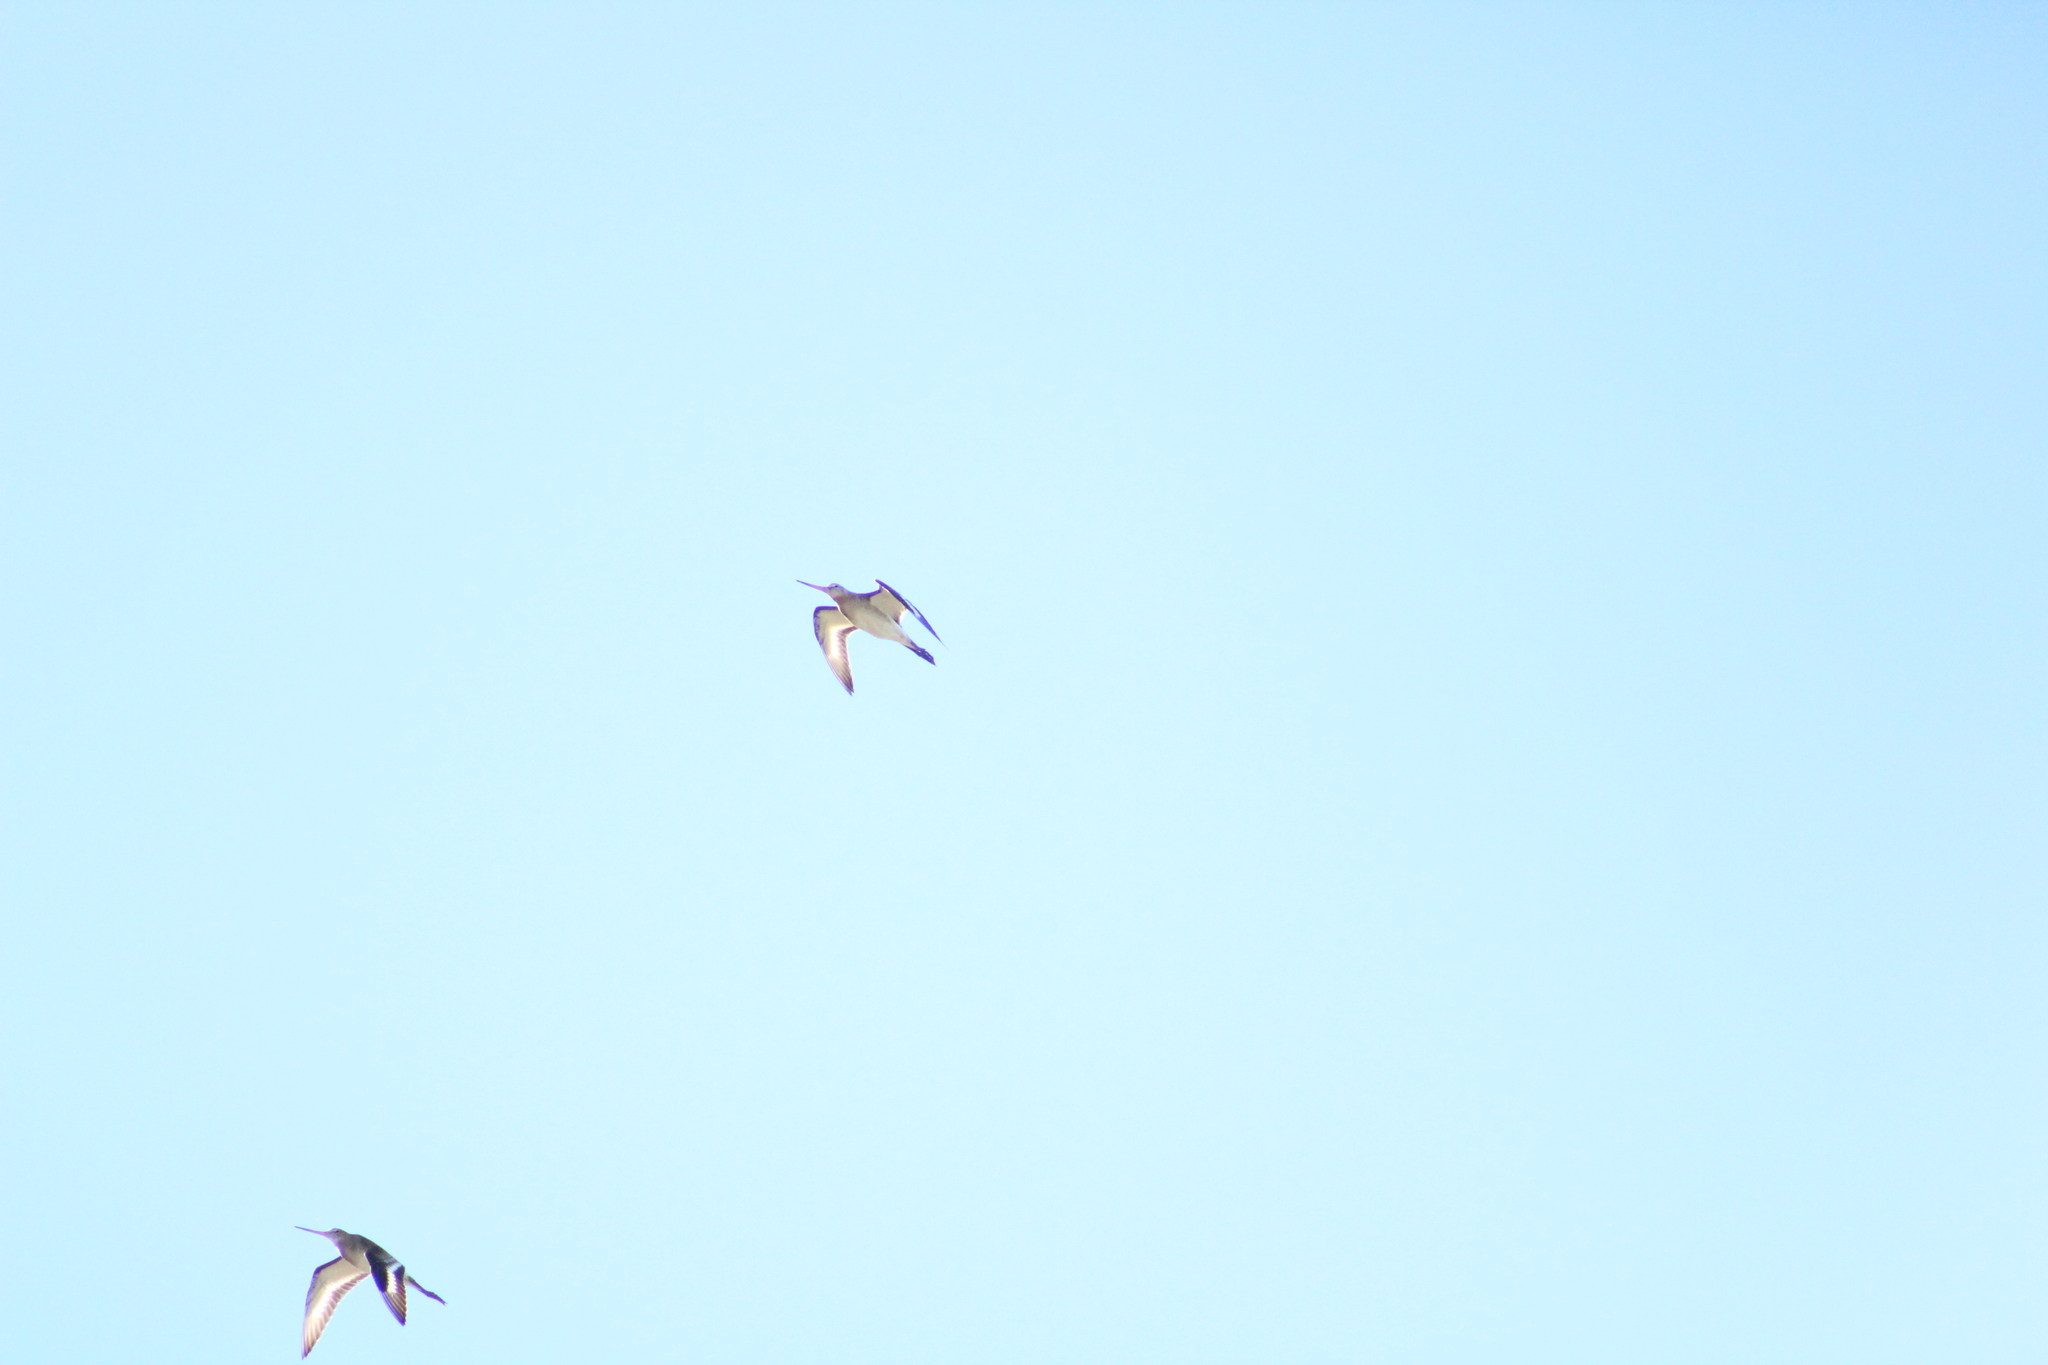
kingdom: Animalia
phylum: Chordata
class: Aves
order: Charadriiformes
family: Scolopacidae
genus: Limosa
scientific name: Limosa limosa
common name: Black-tailed godwit
